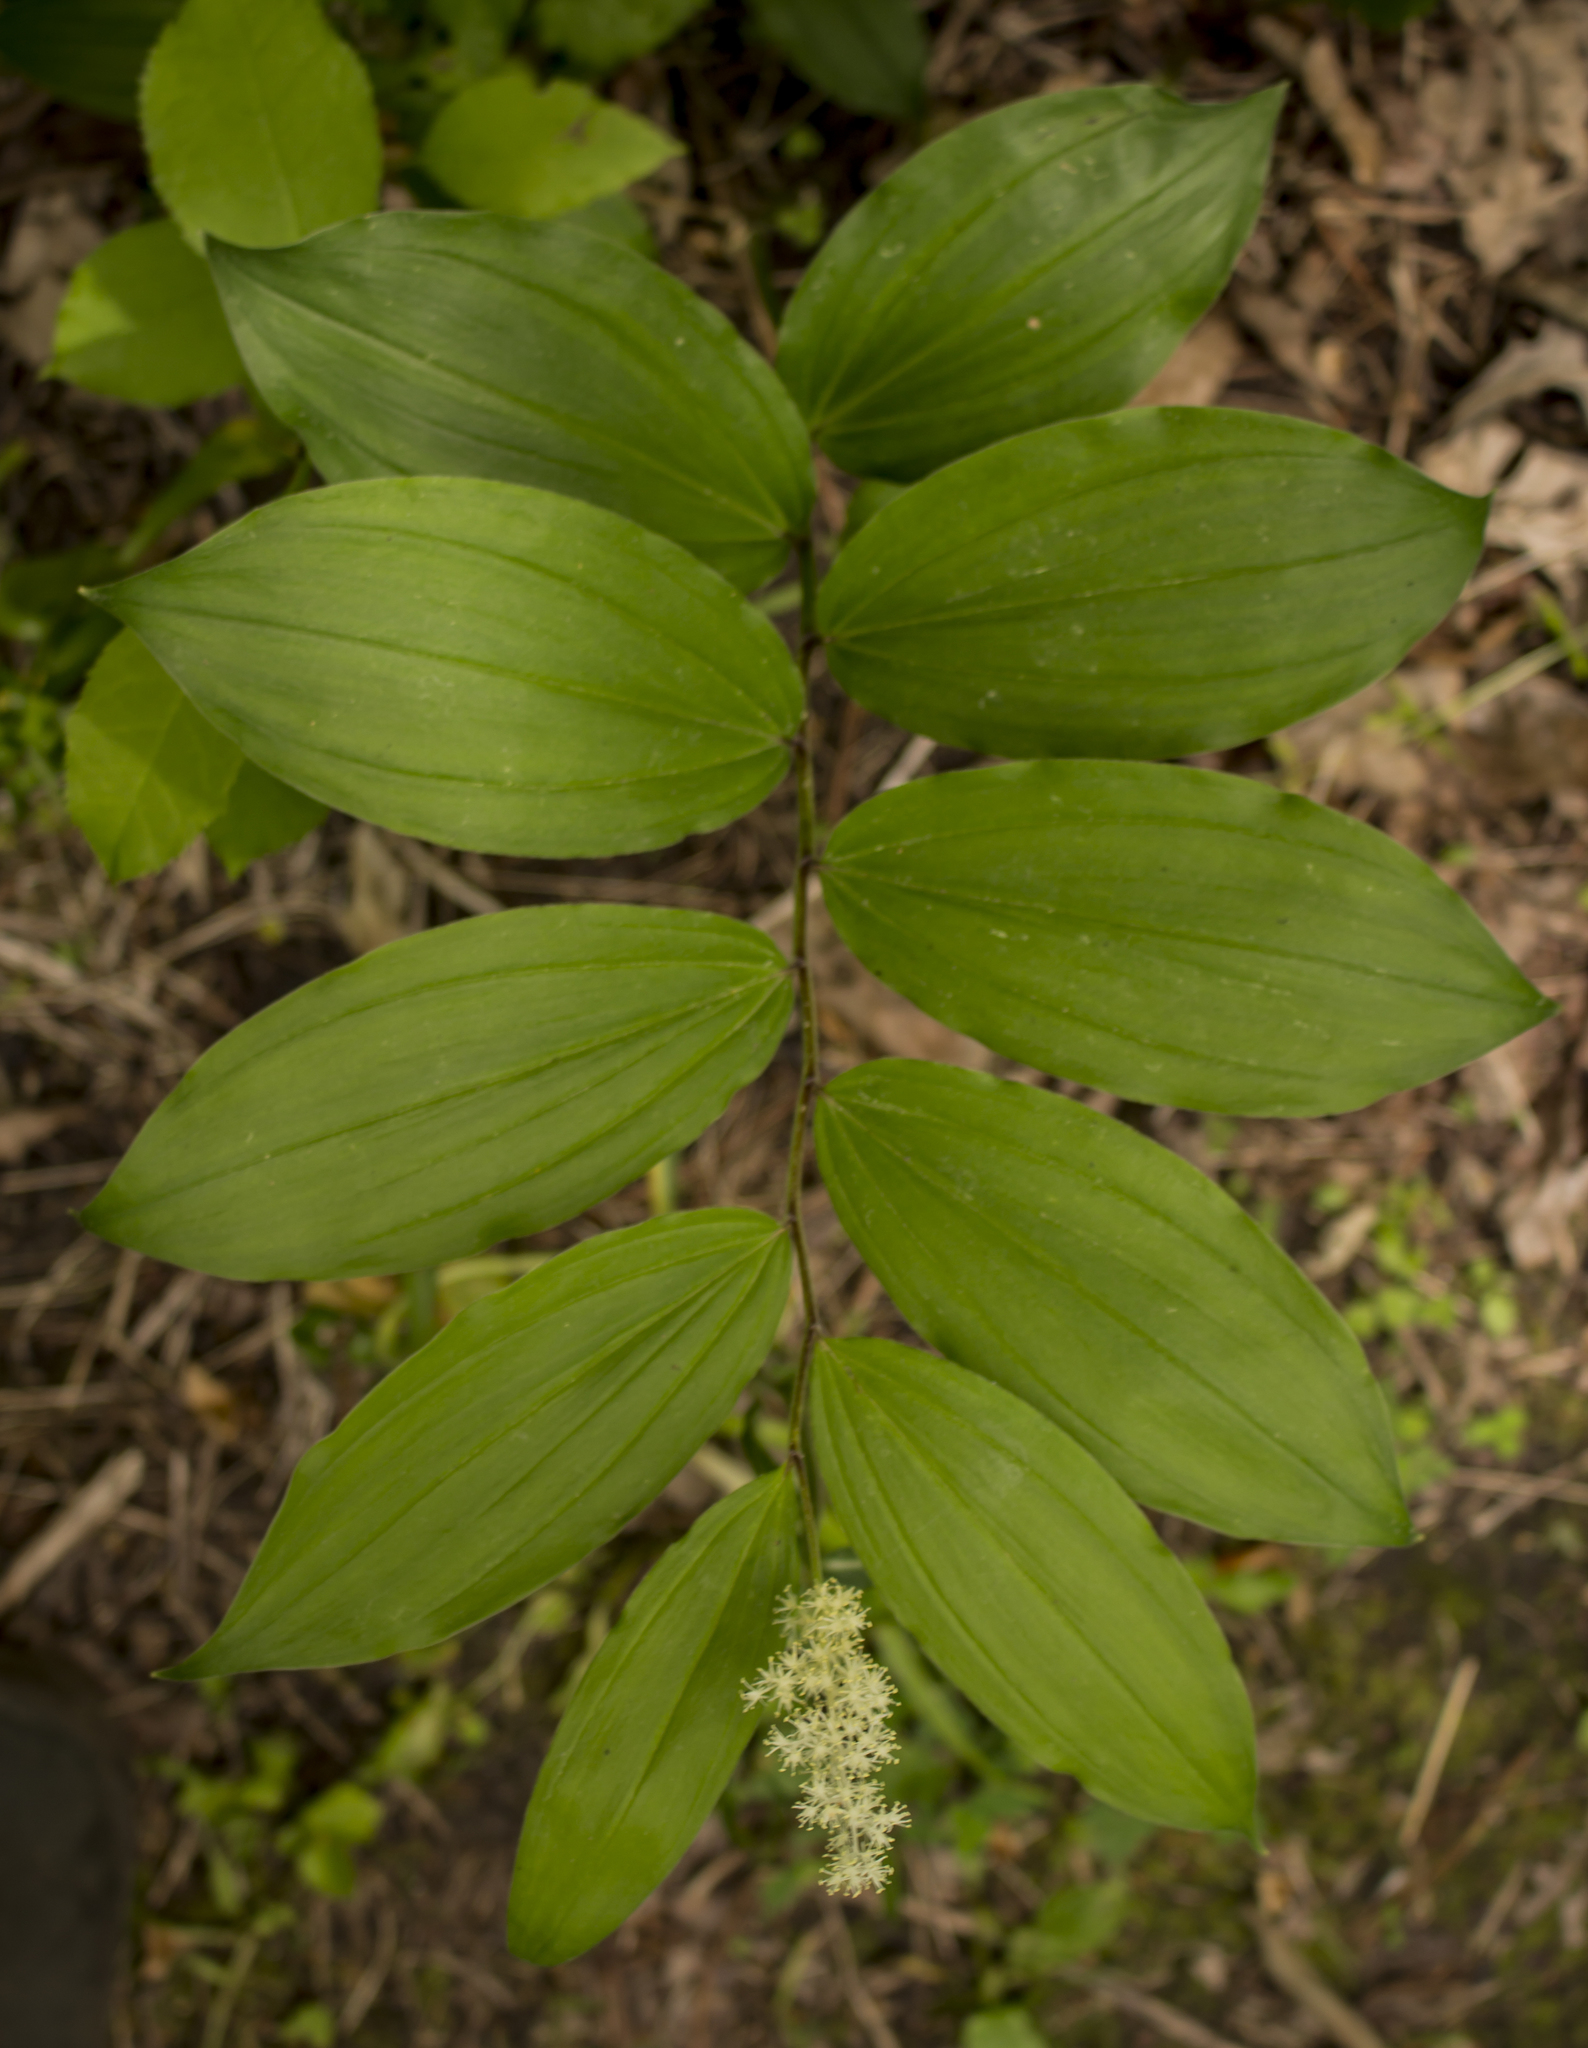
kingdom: Plantae
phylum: Tracheophyta
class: Liliopsida
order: Asparagales
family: Asparagaceae
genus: Maianthemum
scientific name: Maianthemum racemosum
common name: False spikenard
